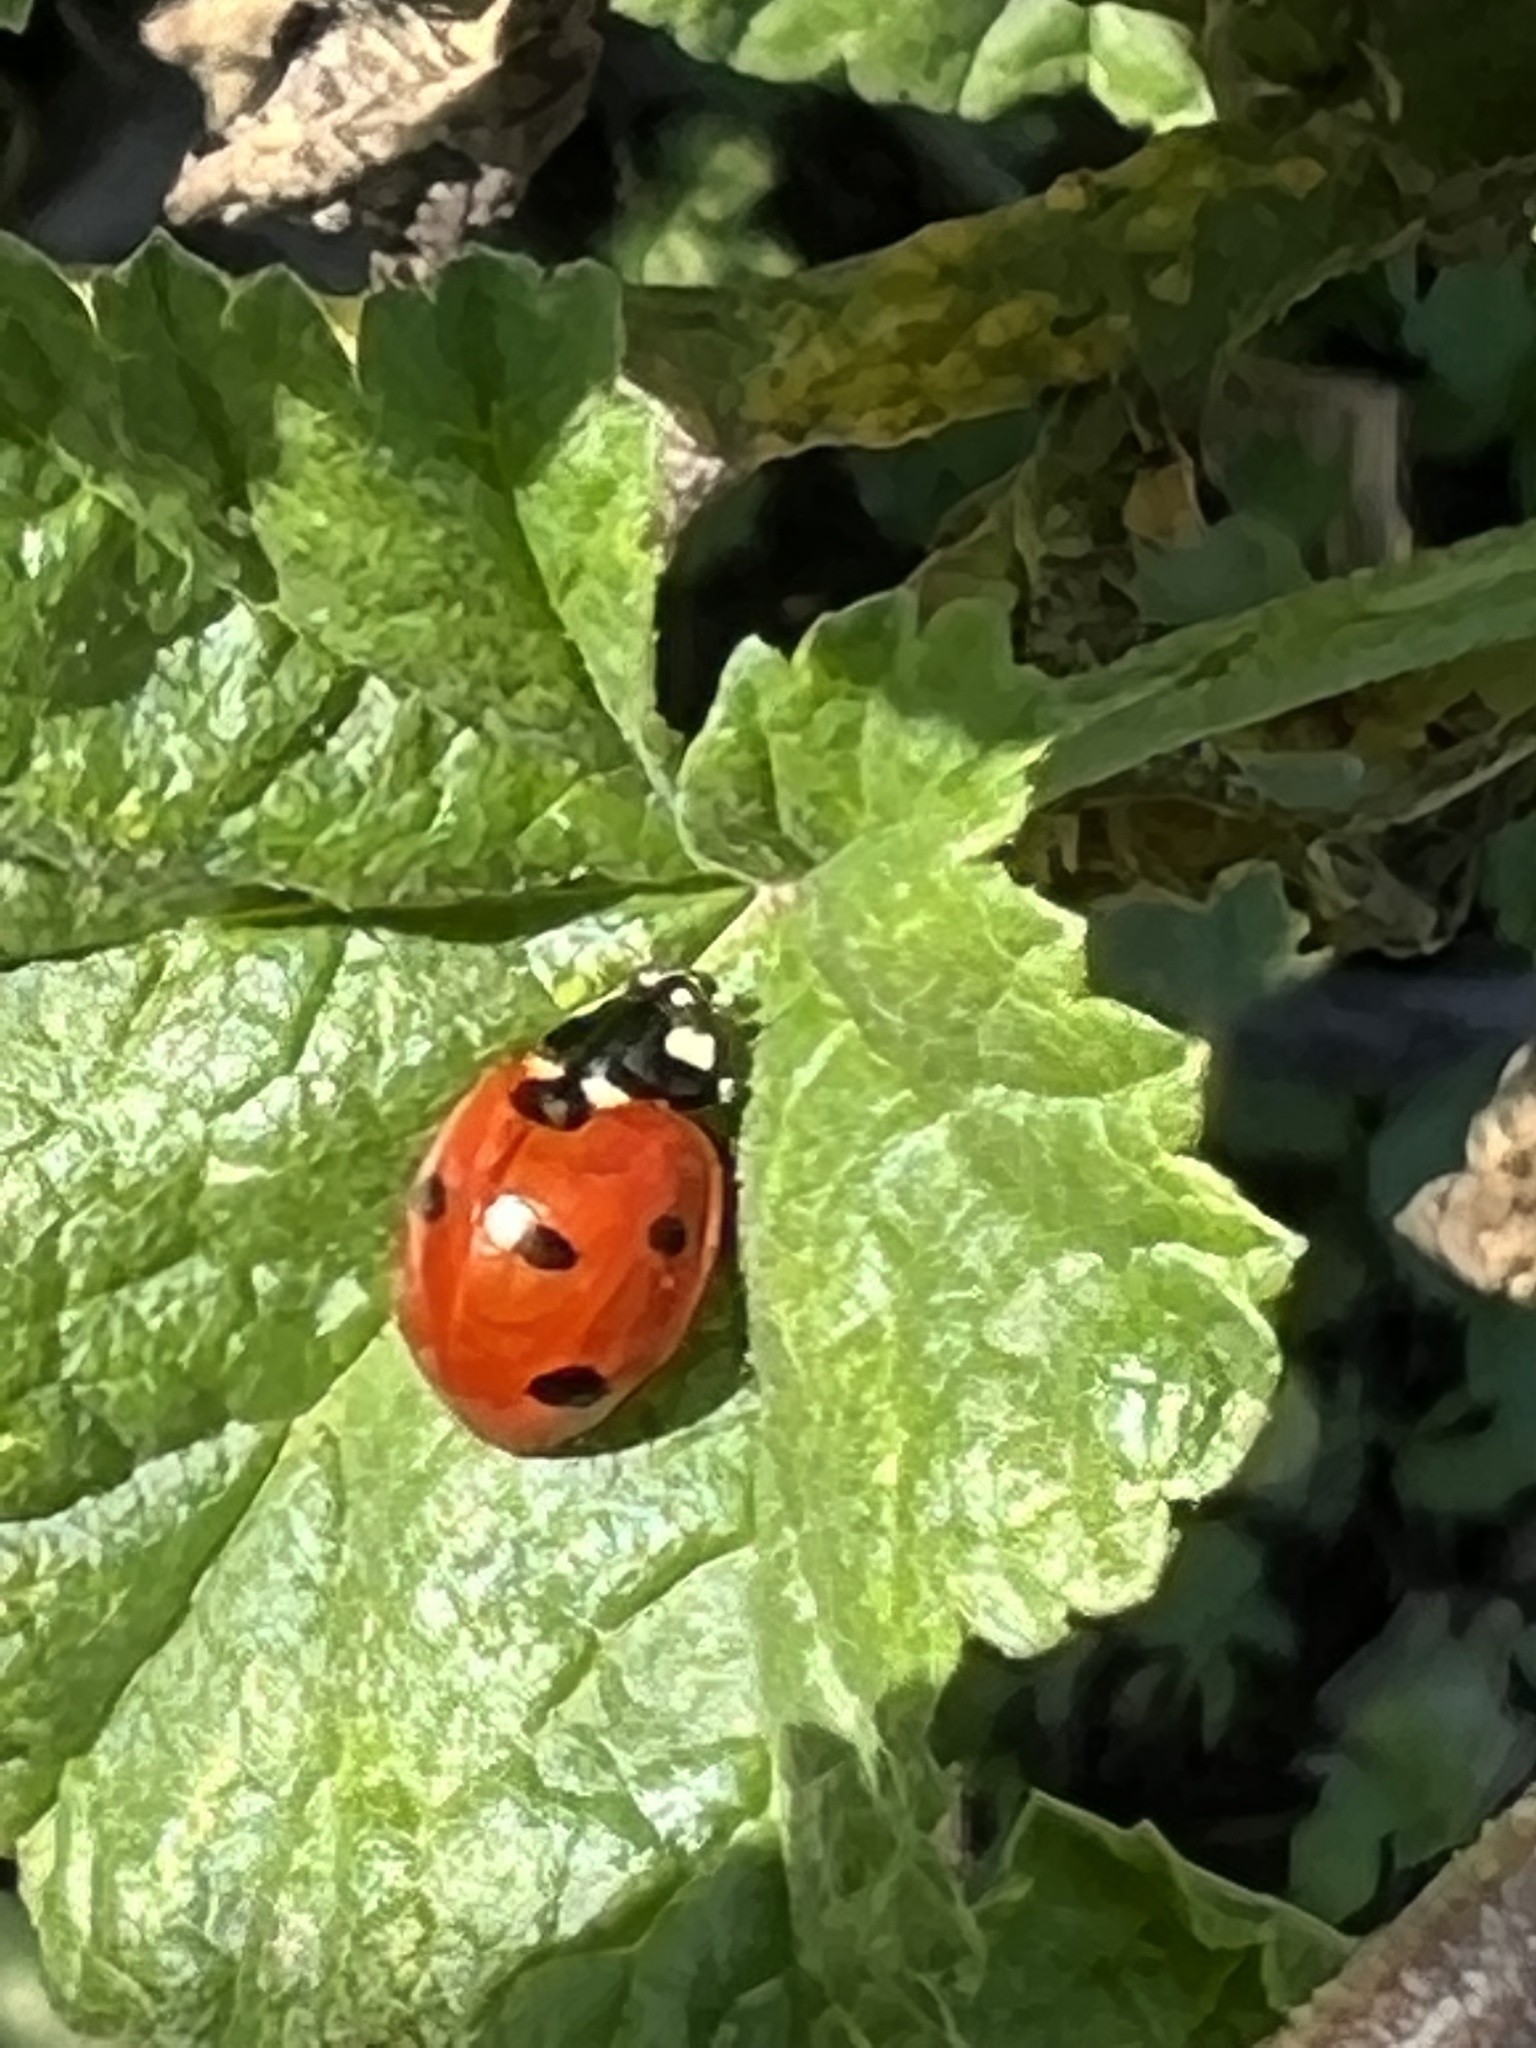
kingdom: Animalia
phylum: Arthropoda
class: Insecta
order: Coleoptera
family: Coccinellidae
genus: Coccinella
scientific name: Coccinella septempunctata
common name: Sevenspotted lady beetle
